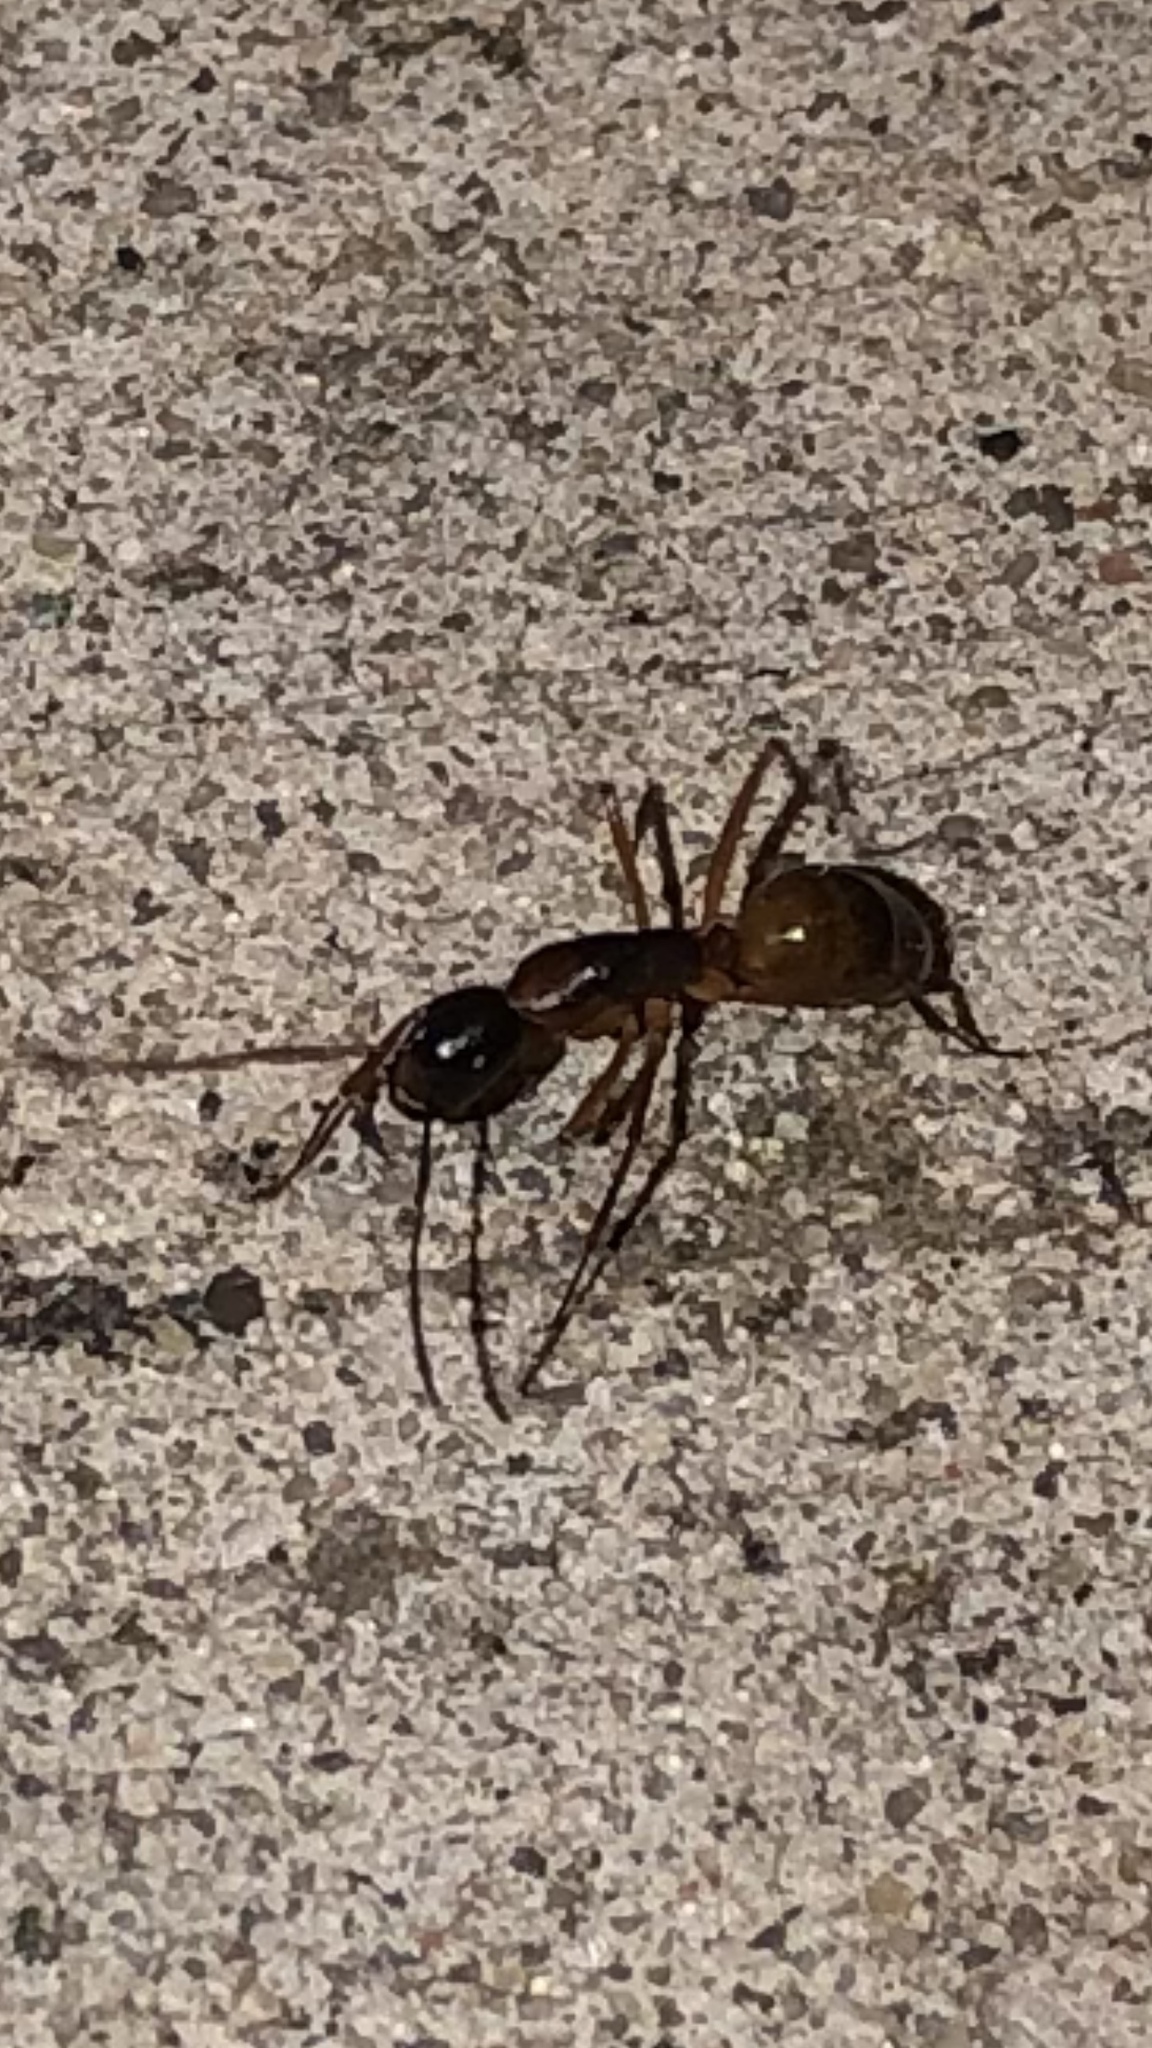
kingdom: Animalia
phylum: Arthropoda
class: Insecta
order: Hymenoptera
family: Formicidae
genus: Camponotus
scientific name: Camponotus americanus
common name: American carpenter ant
